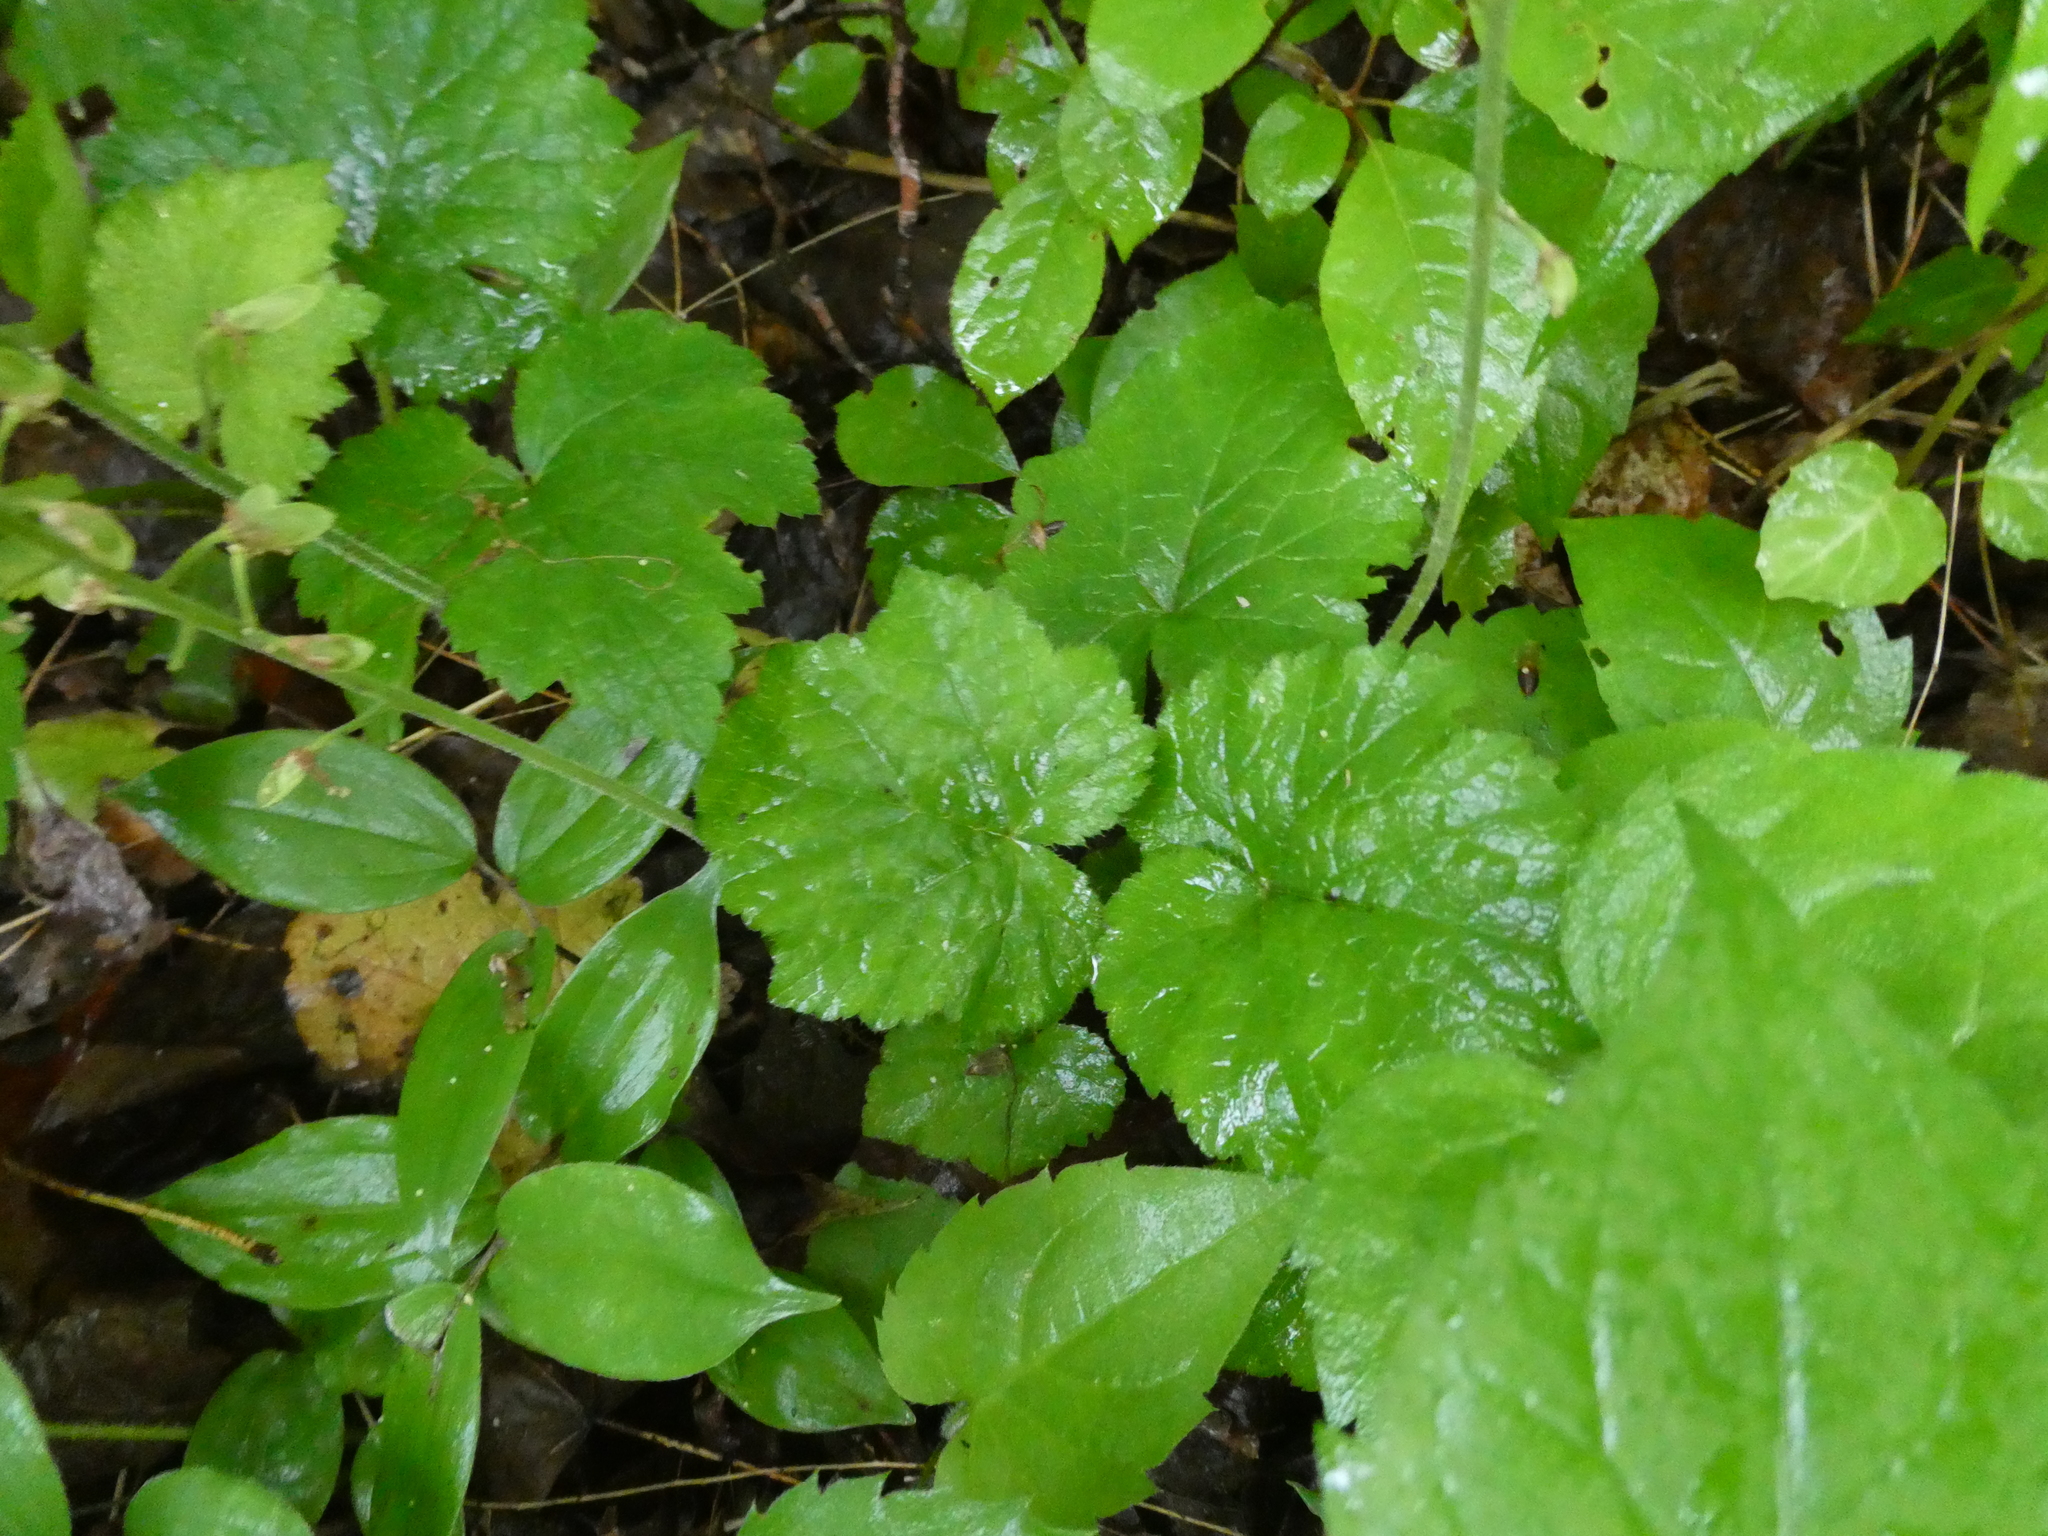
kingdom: Plantae
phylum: Tracheophyta
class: Magnoliopsida
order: Saxifragales
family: Saxifragaceae
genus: Tiarella
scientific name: Tiarella stolonifera
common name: Stoloniferous foamflower
